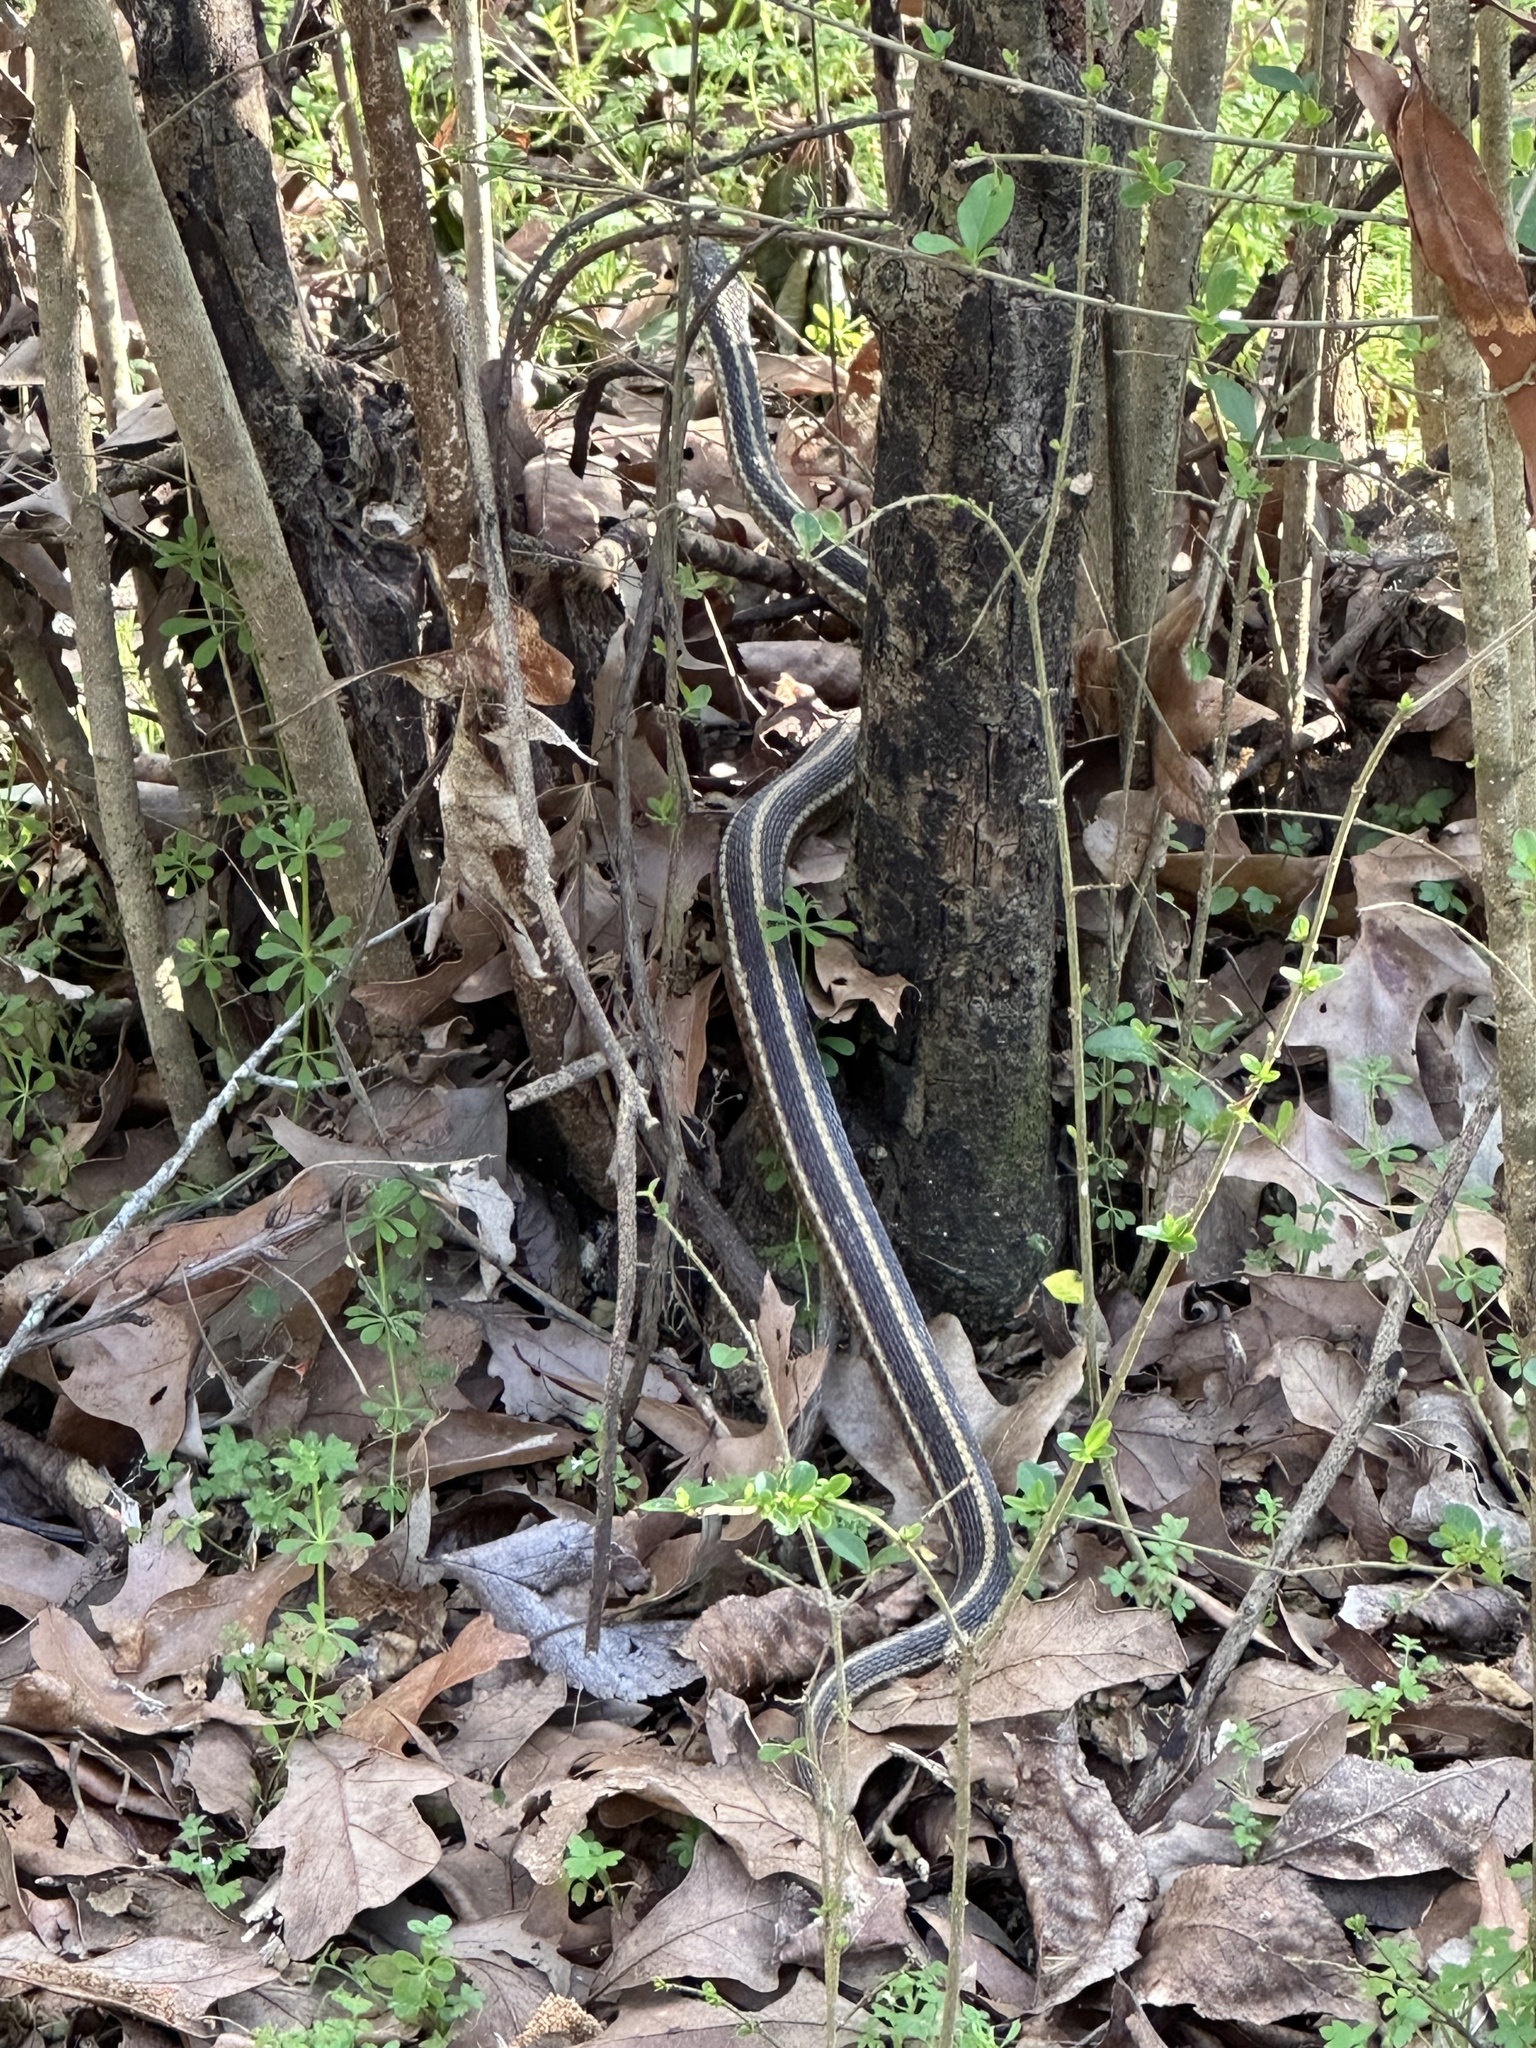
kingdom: Animalia
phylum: Chordata
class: Squamata
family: Colubridae
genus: Thamnophis
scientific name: Thamnophis sirtalis
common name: Common garter snake
